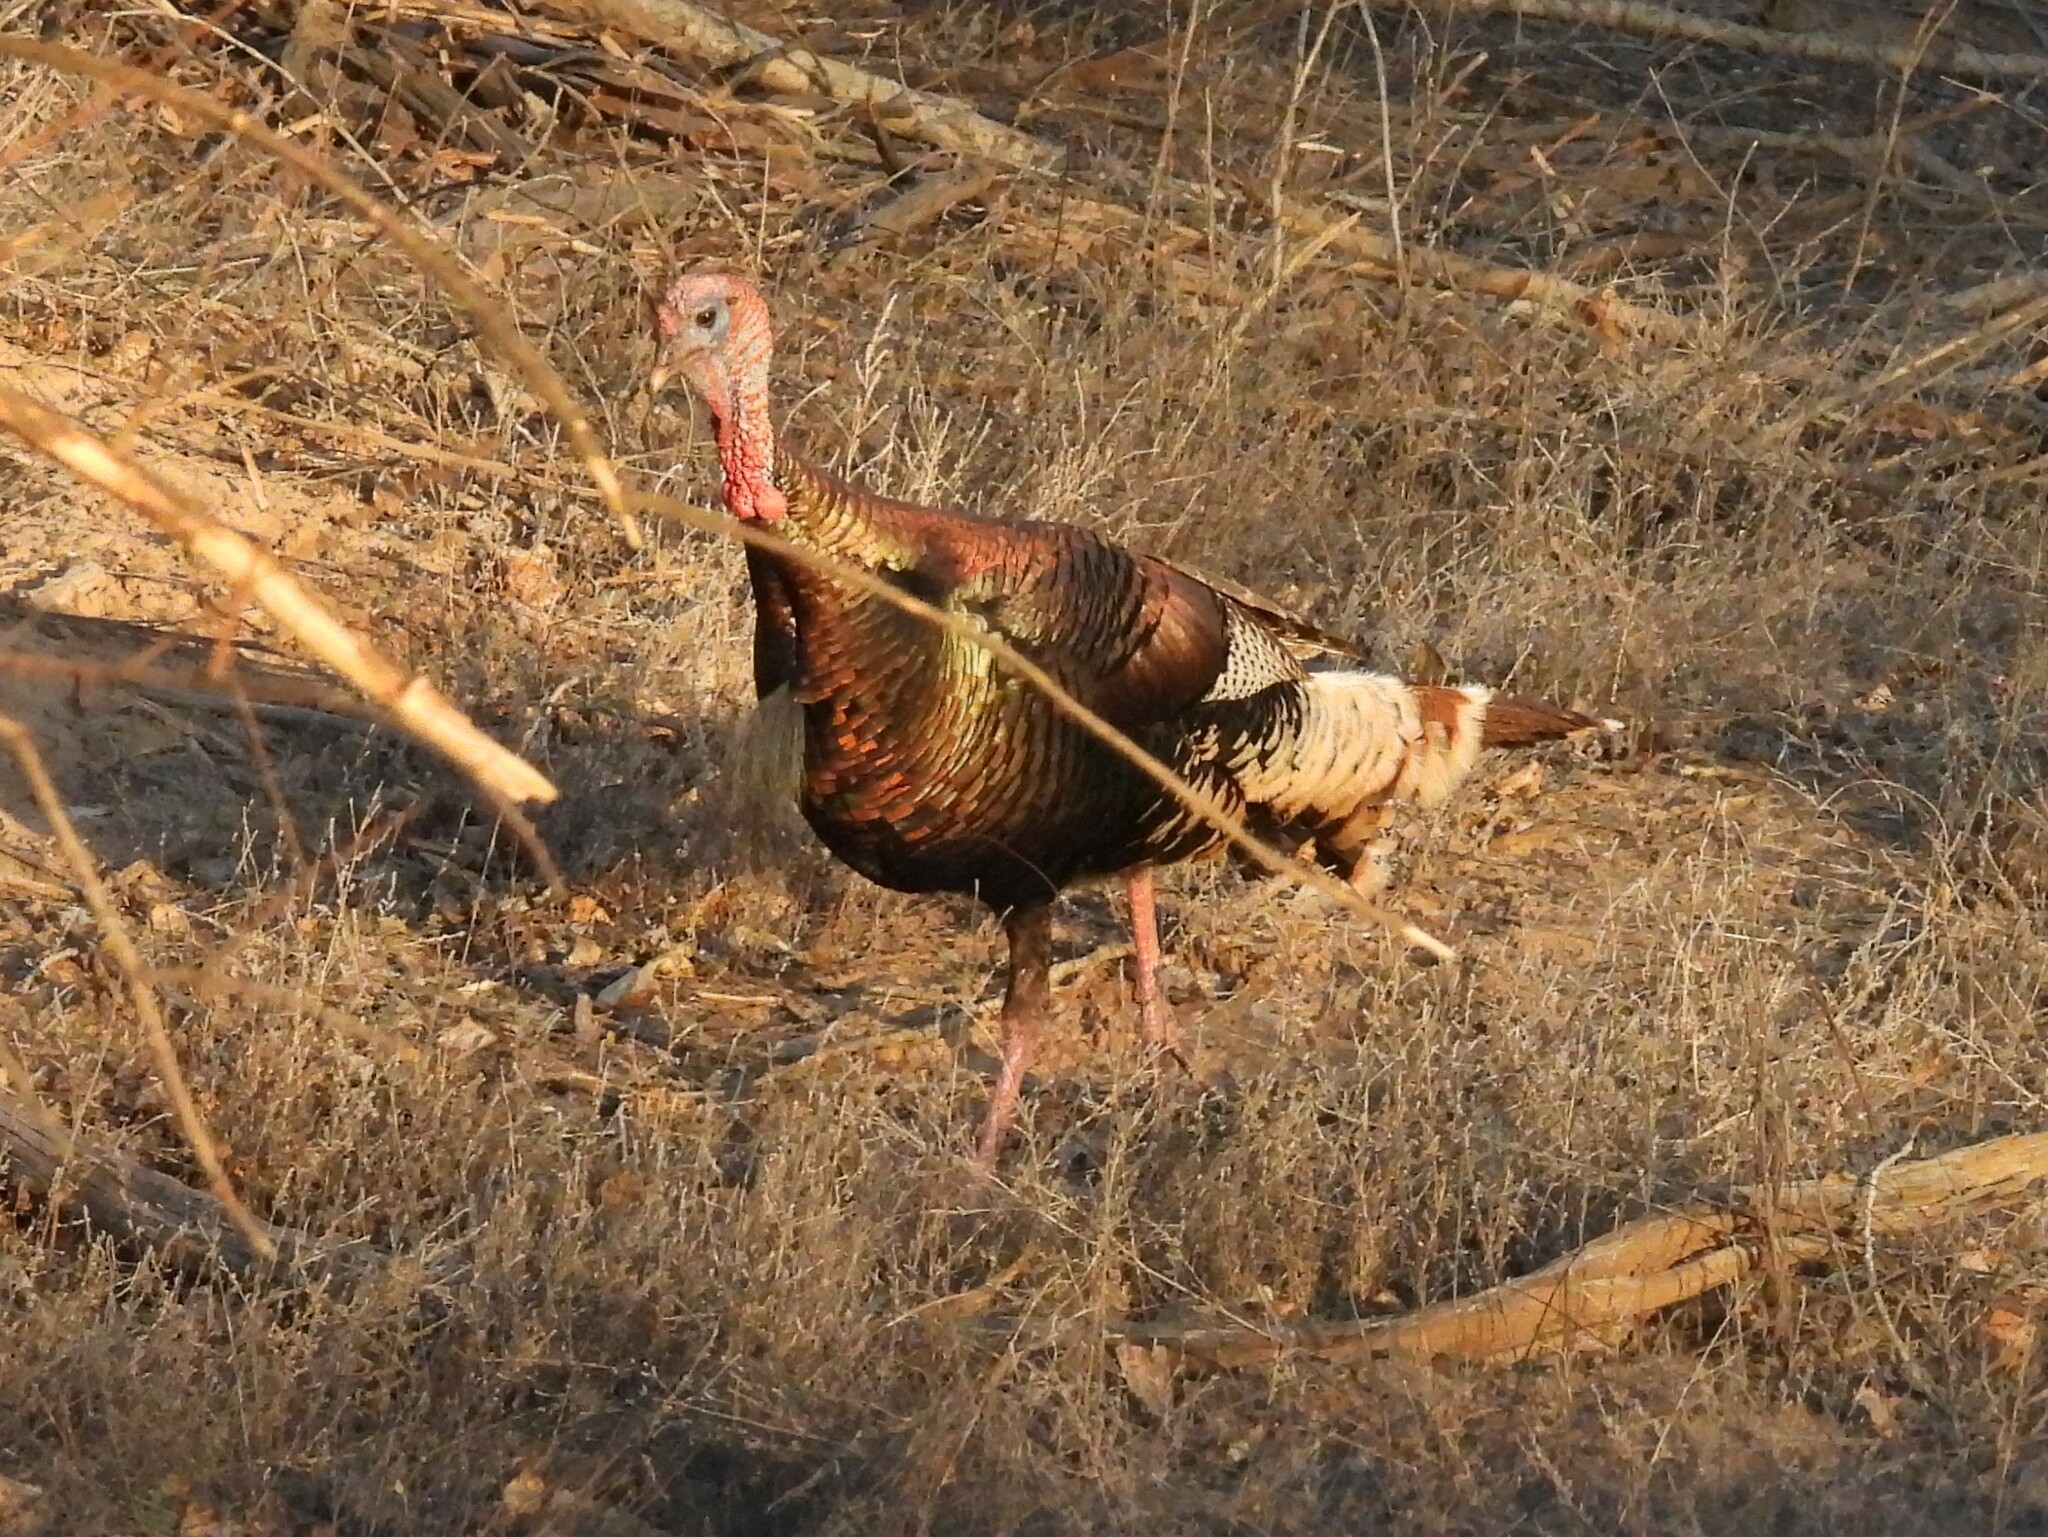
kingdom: Animalia
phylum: Chordata
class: Aves
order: Galliformes
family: Phasianidae
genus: Meleagris
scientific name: Meleagris gallopavo
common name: Wild turkey
